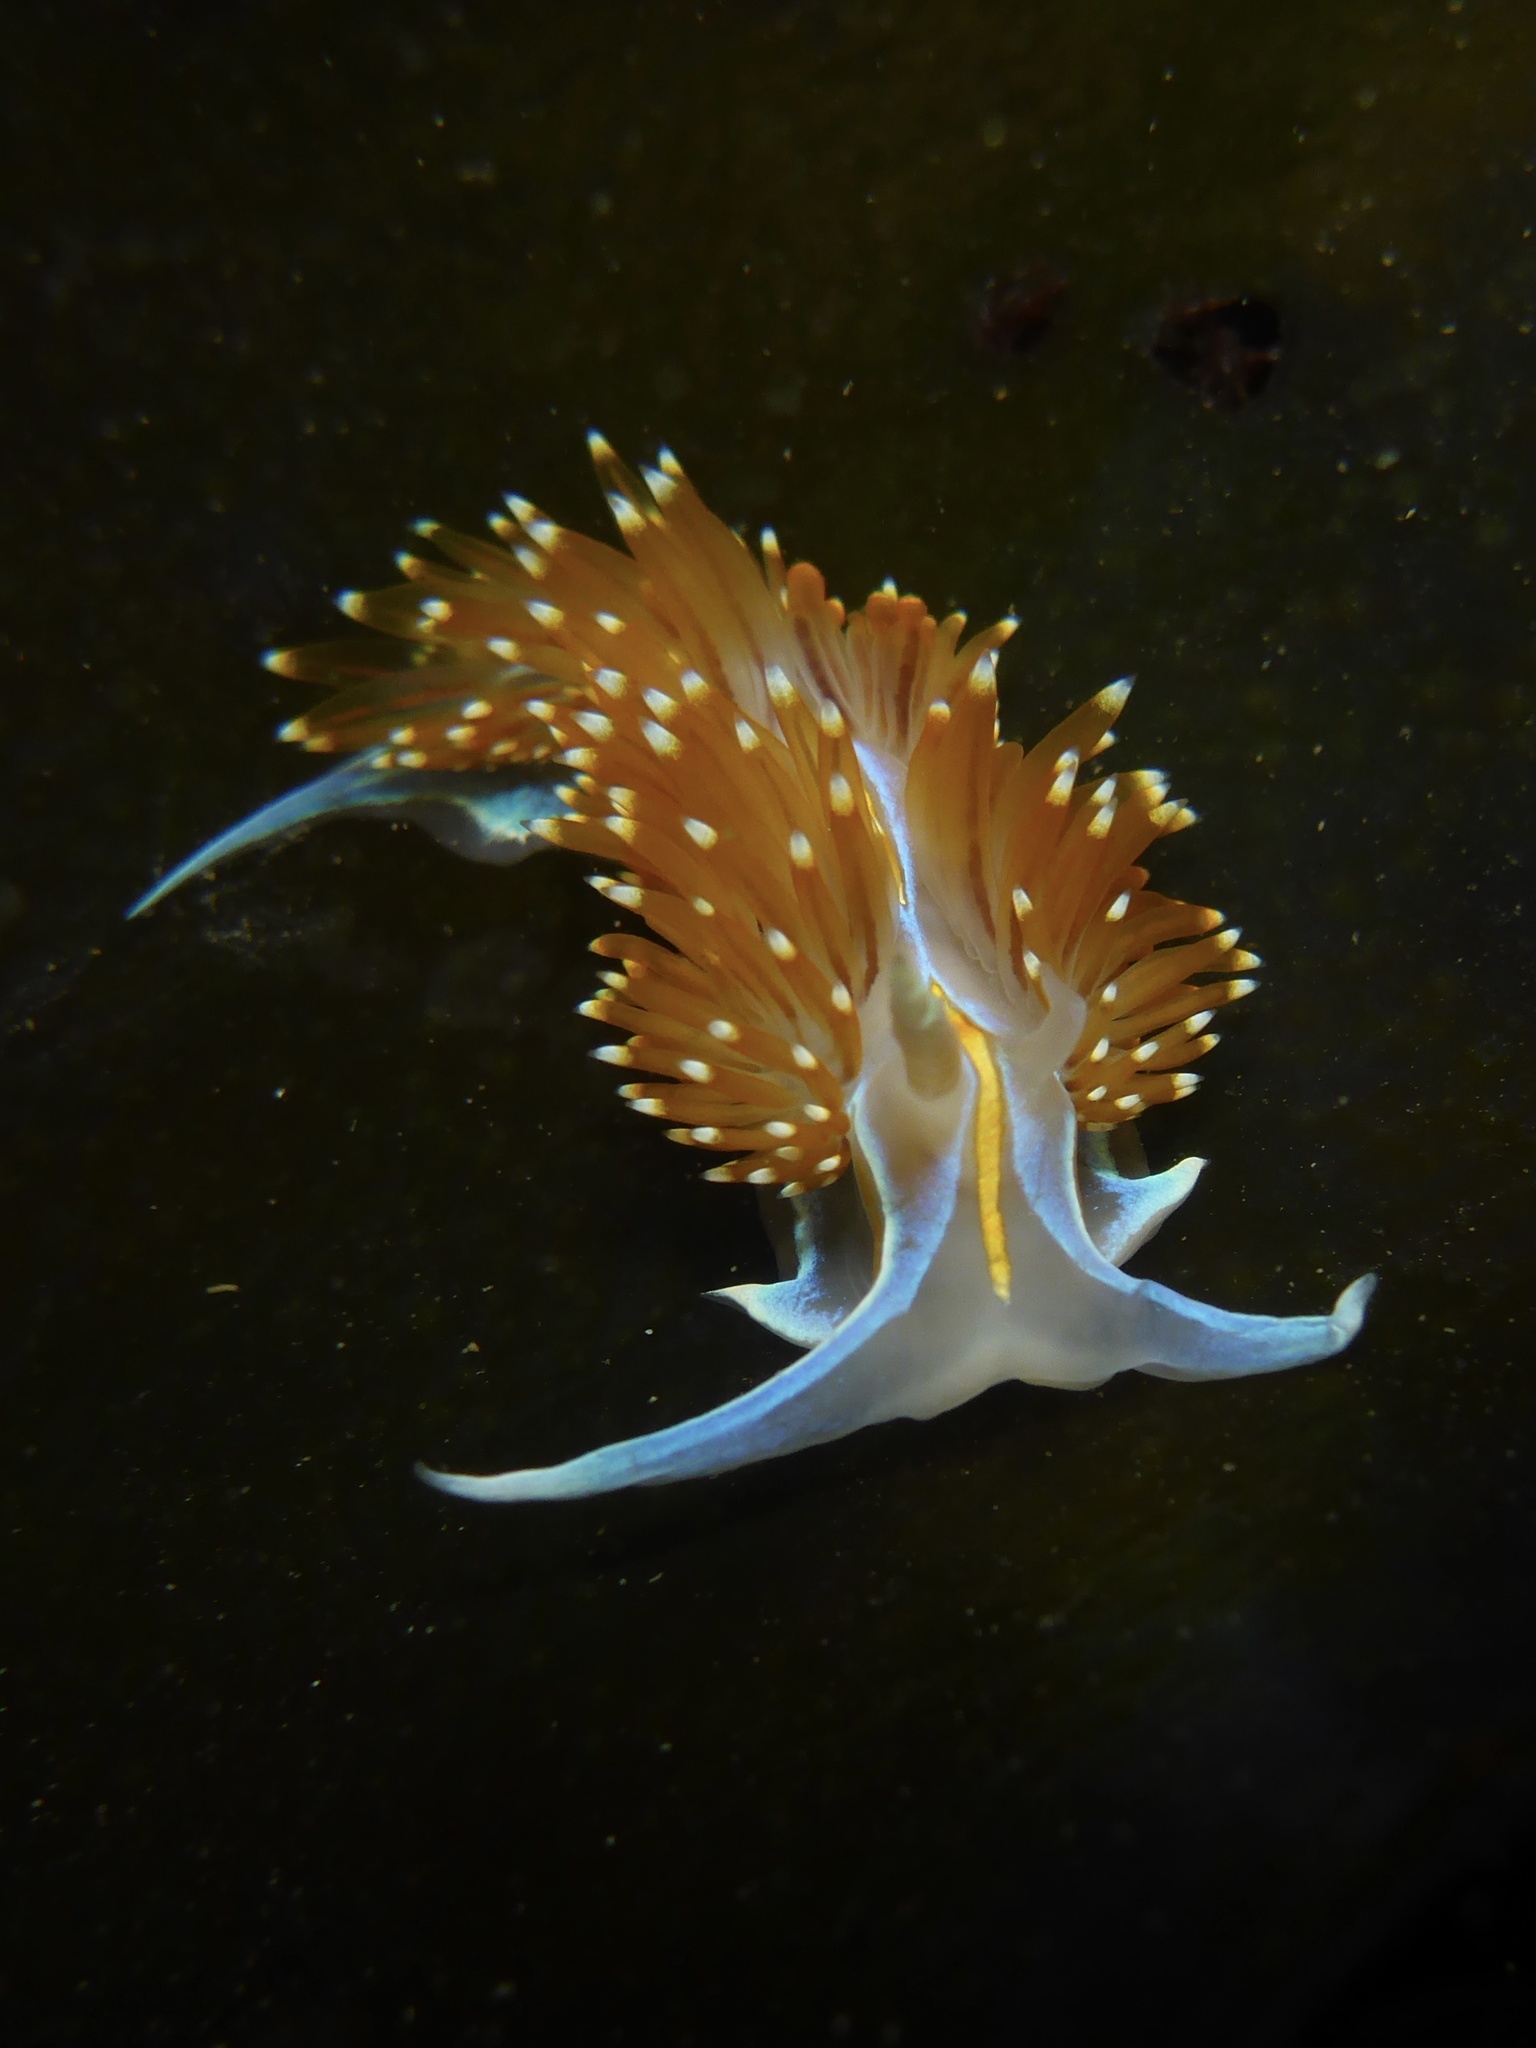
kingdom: Animalia
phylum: Mollusca
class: Gastropoda
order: Nudibranchia
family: Myrrhinidae
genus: Hermissenda
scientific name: Hermissenda opalescens
